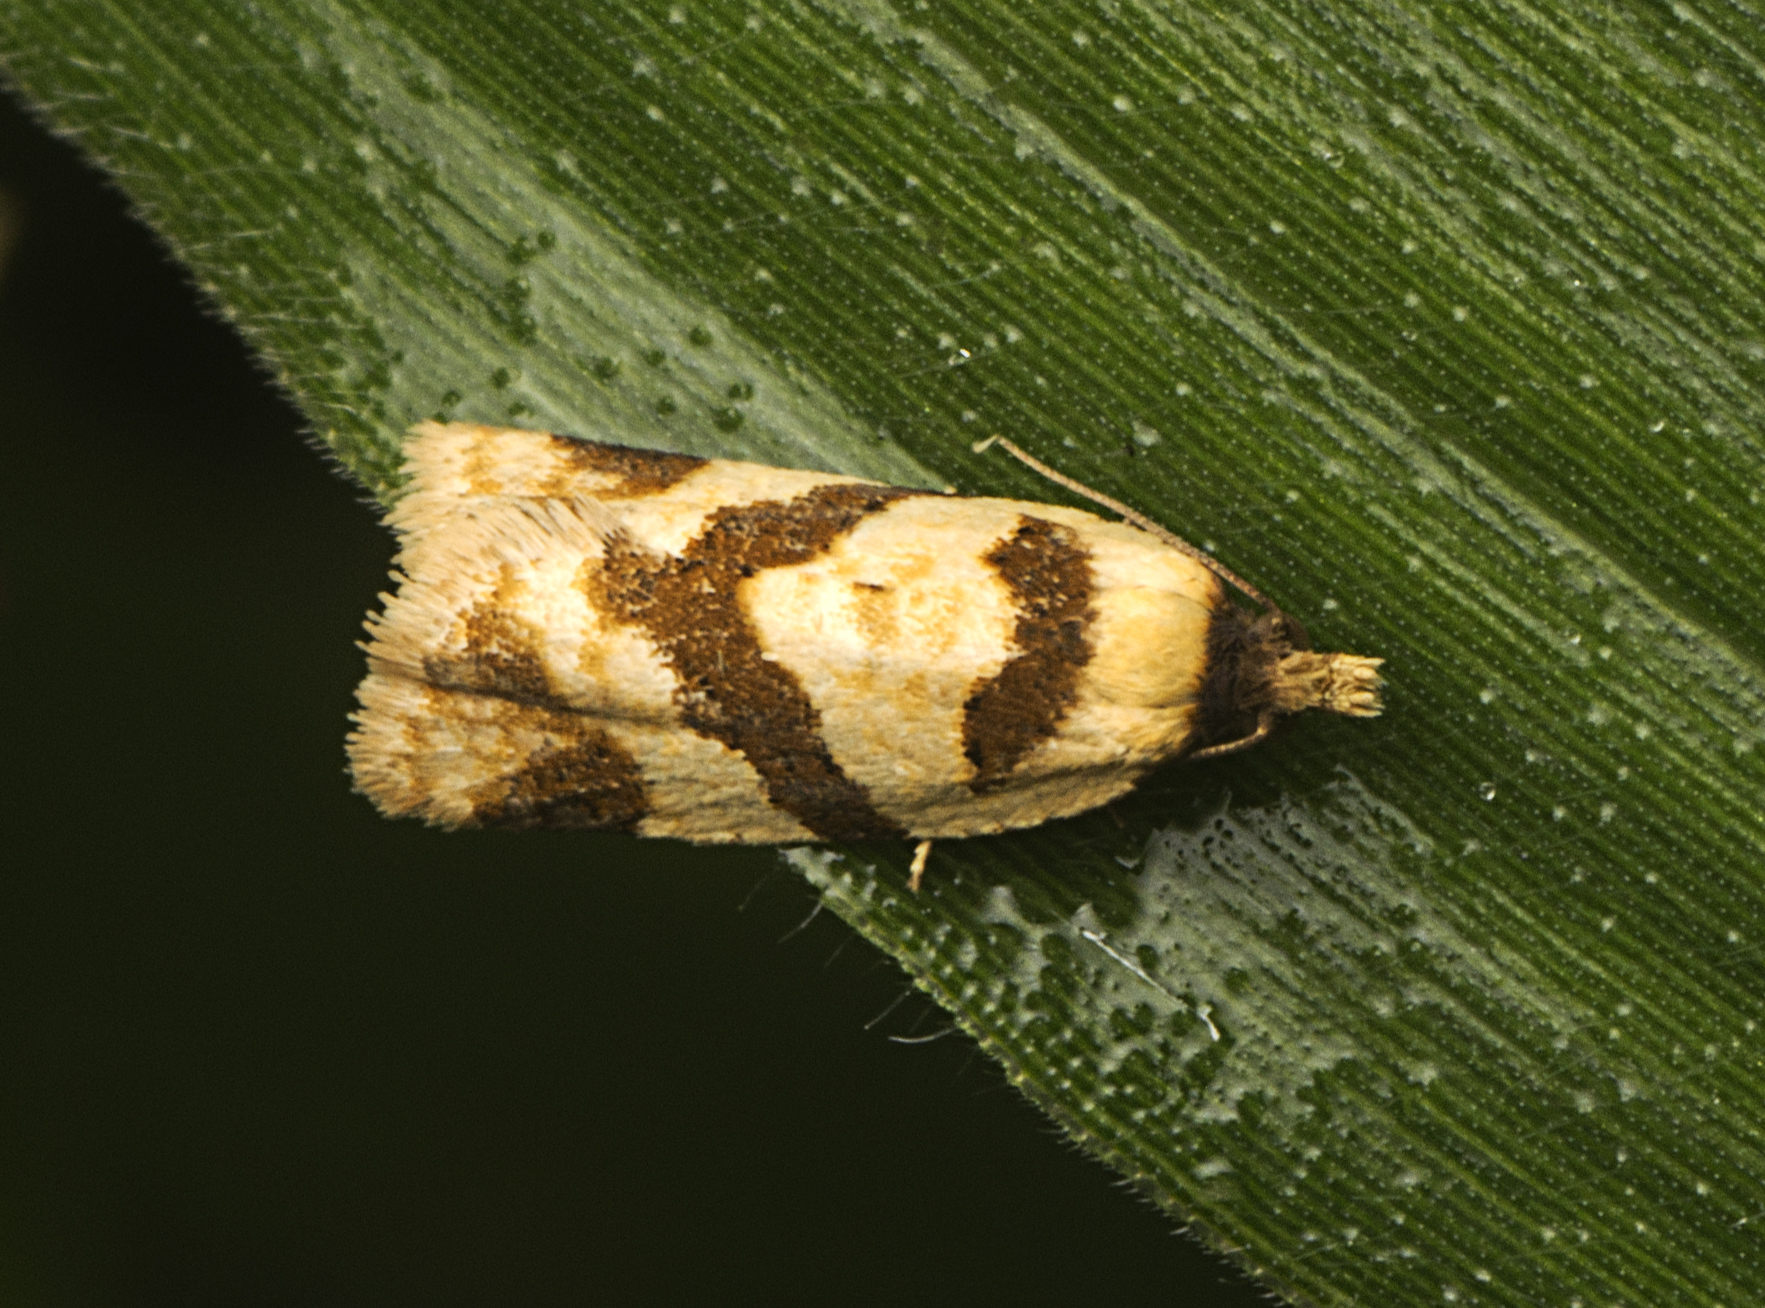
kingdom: Animalia
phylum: Arthropoda
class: Insecta
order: Lepidoptera
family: Tortricidae
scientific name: Tortricidae
